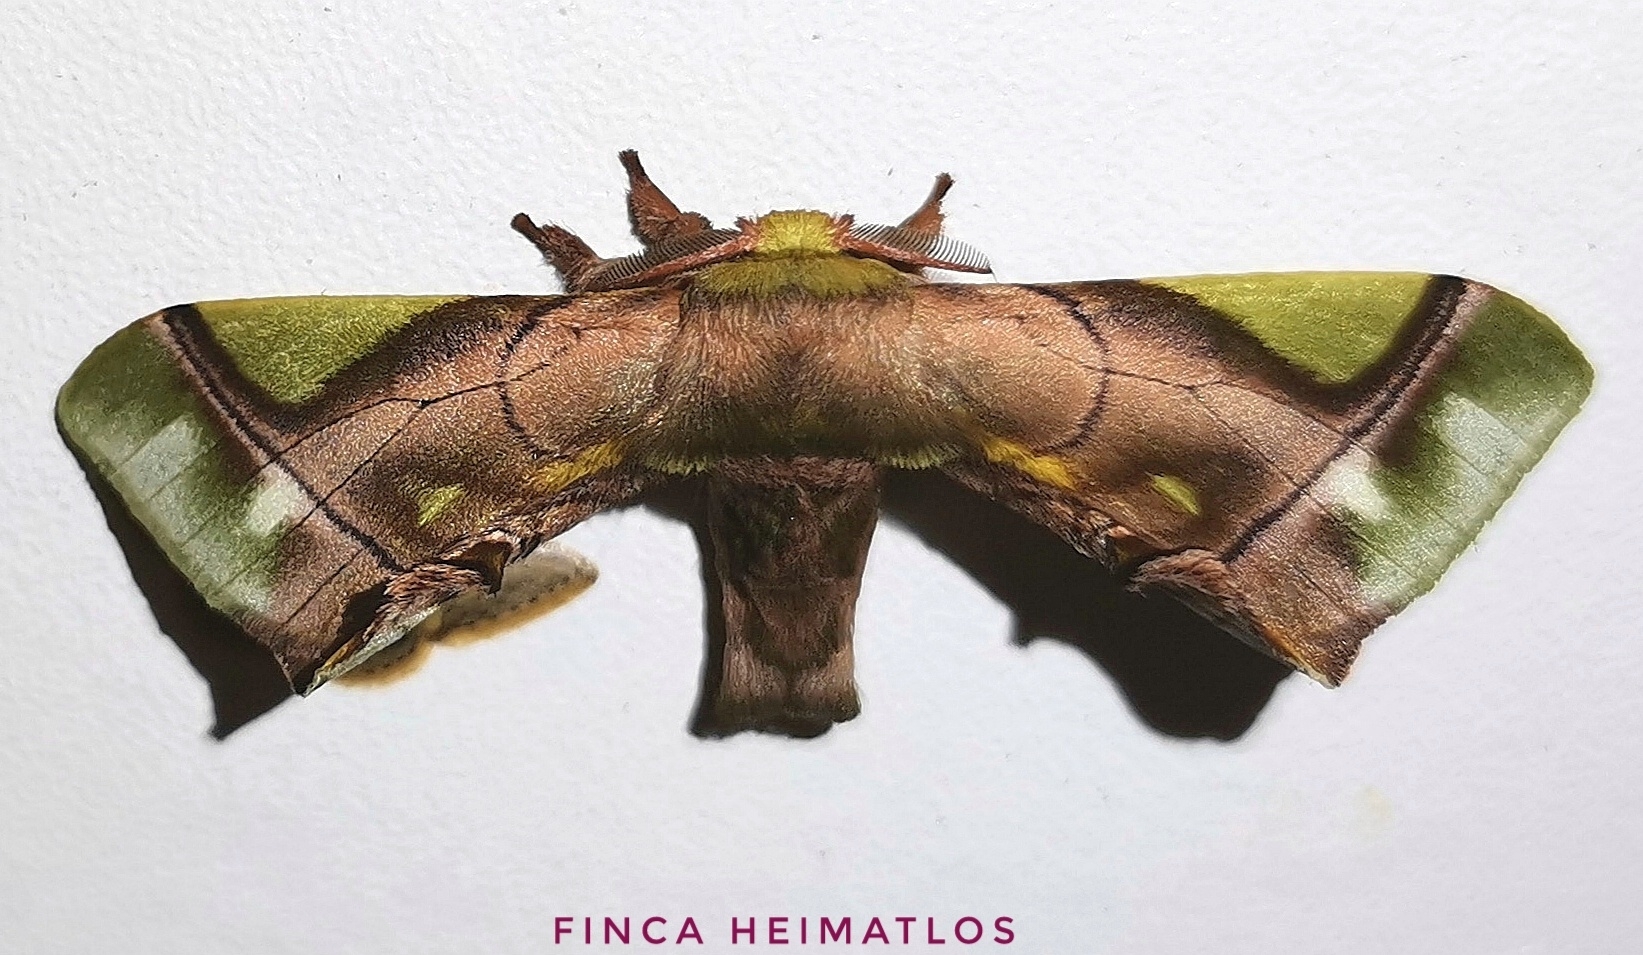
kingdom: Animalia
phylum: Arthropoda
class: Insecta
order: Lepidoptera
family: Bombycidae
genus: Epia
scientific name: Epia muscosa
